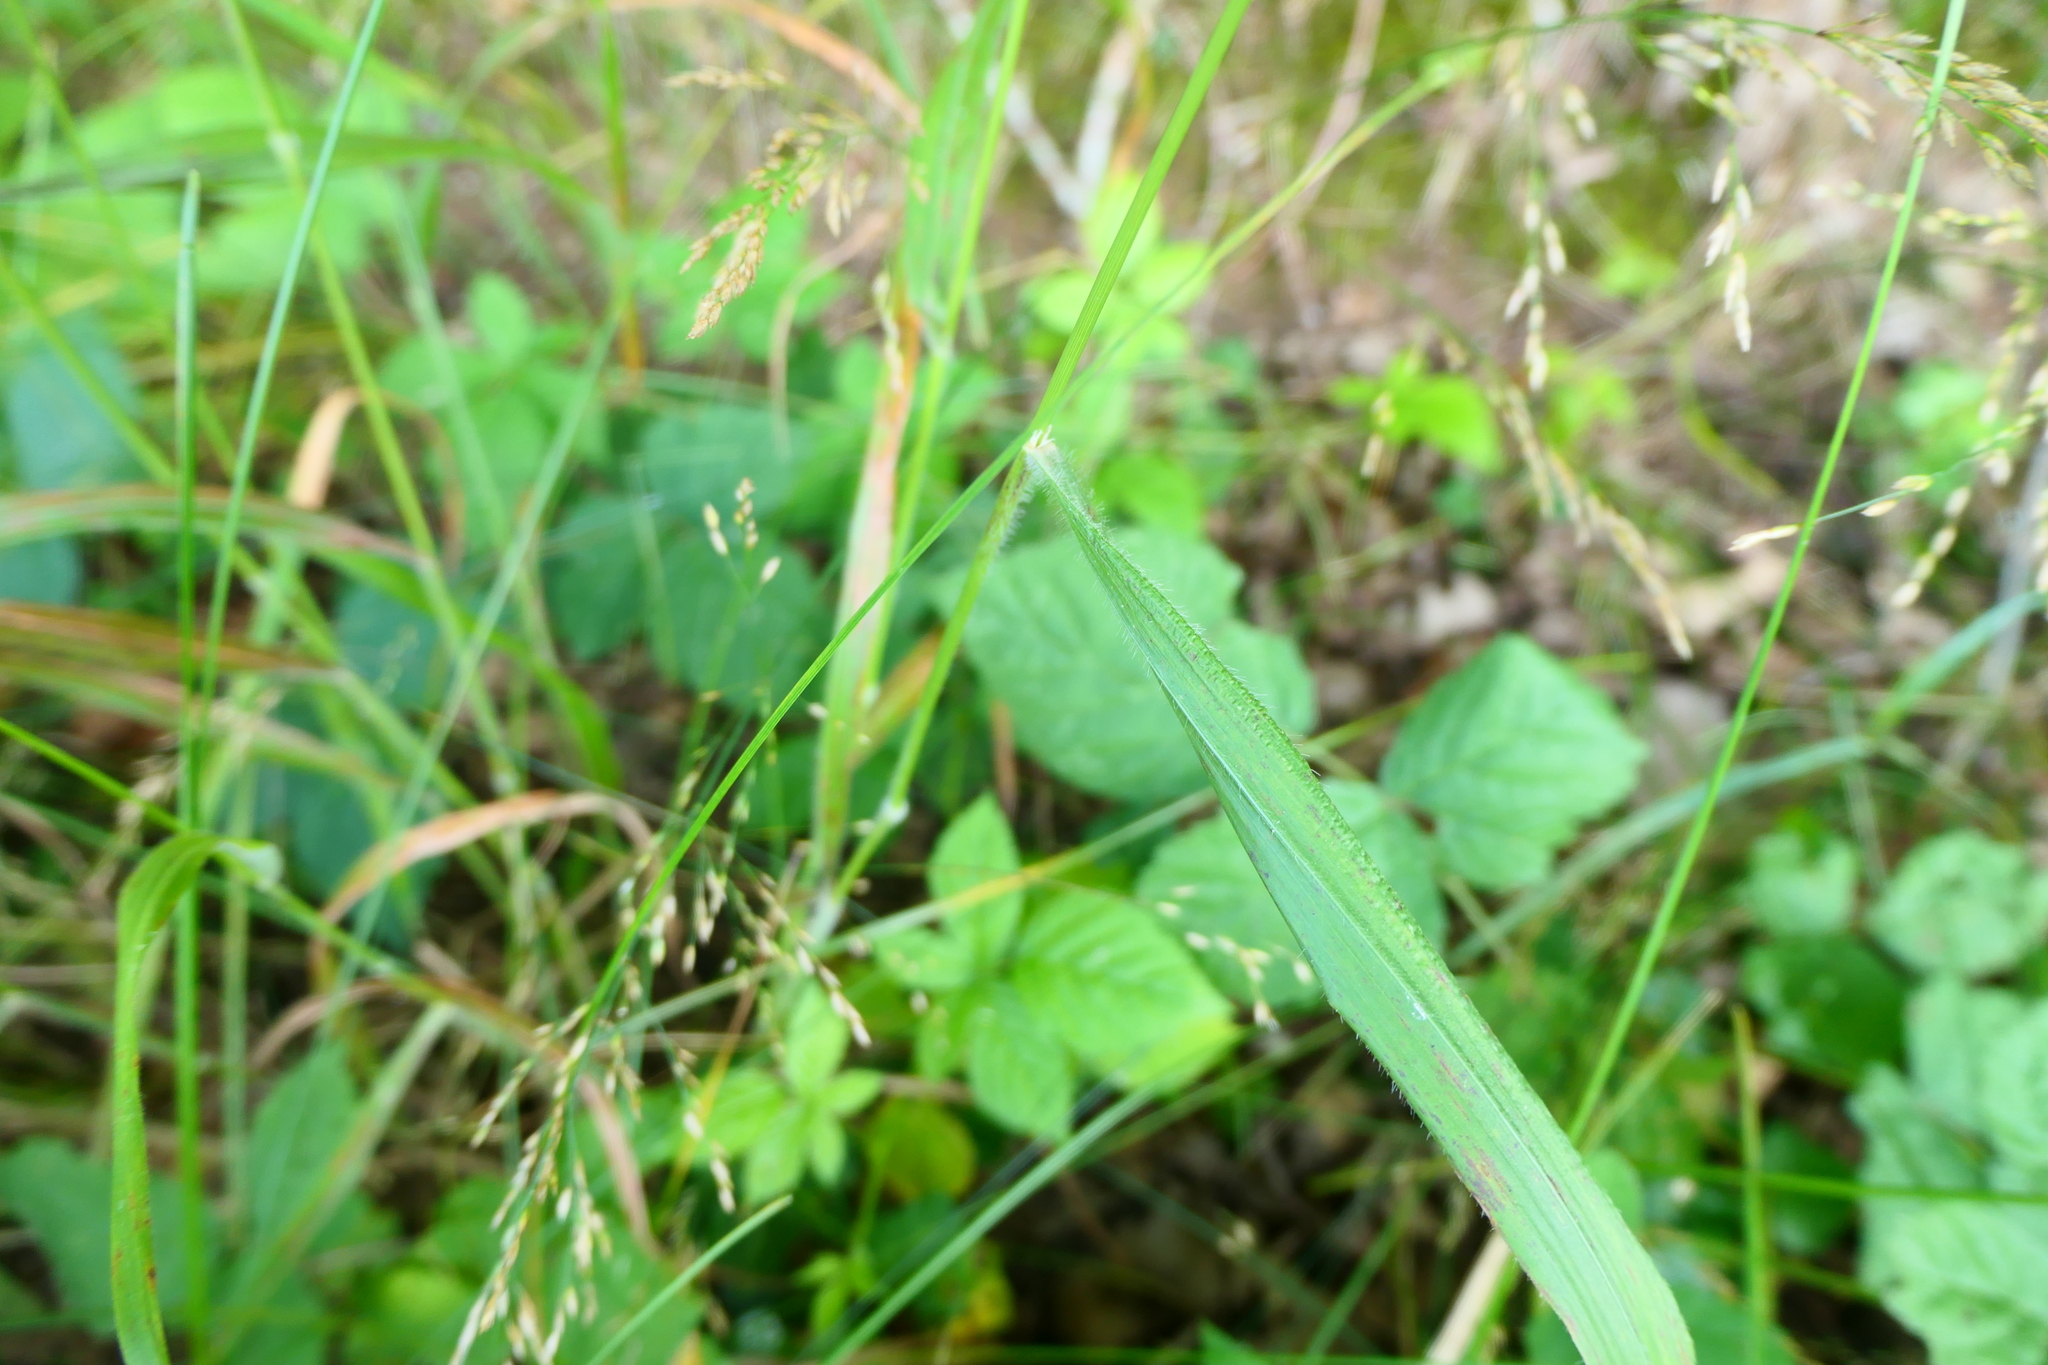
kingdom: Plantae
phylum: Tracheophyta
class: Liliopsida
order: Poales
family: Poaceae
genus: Brachypodium
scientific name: Brachypodium sylvaticum
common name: False-brome
